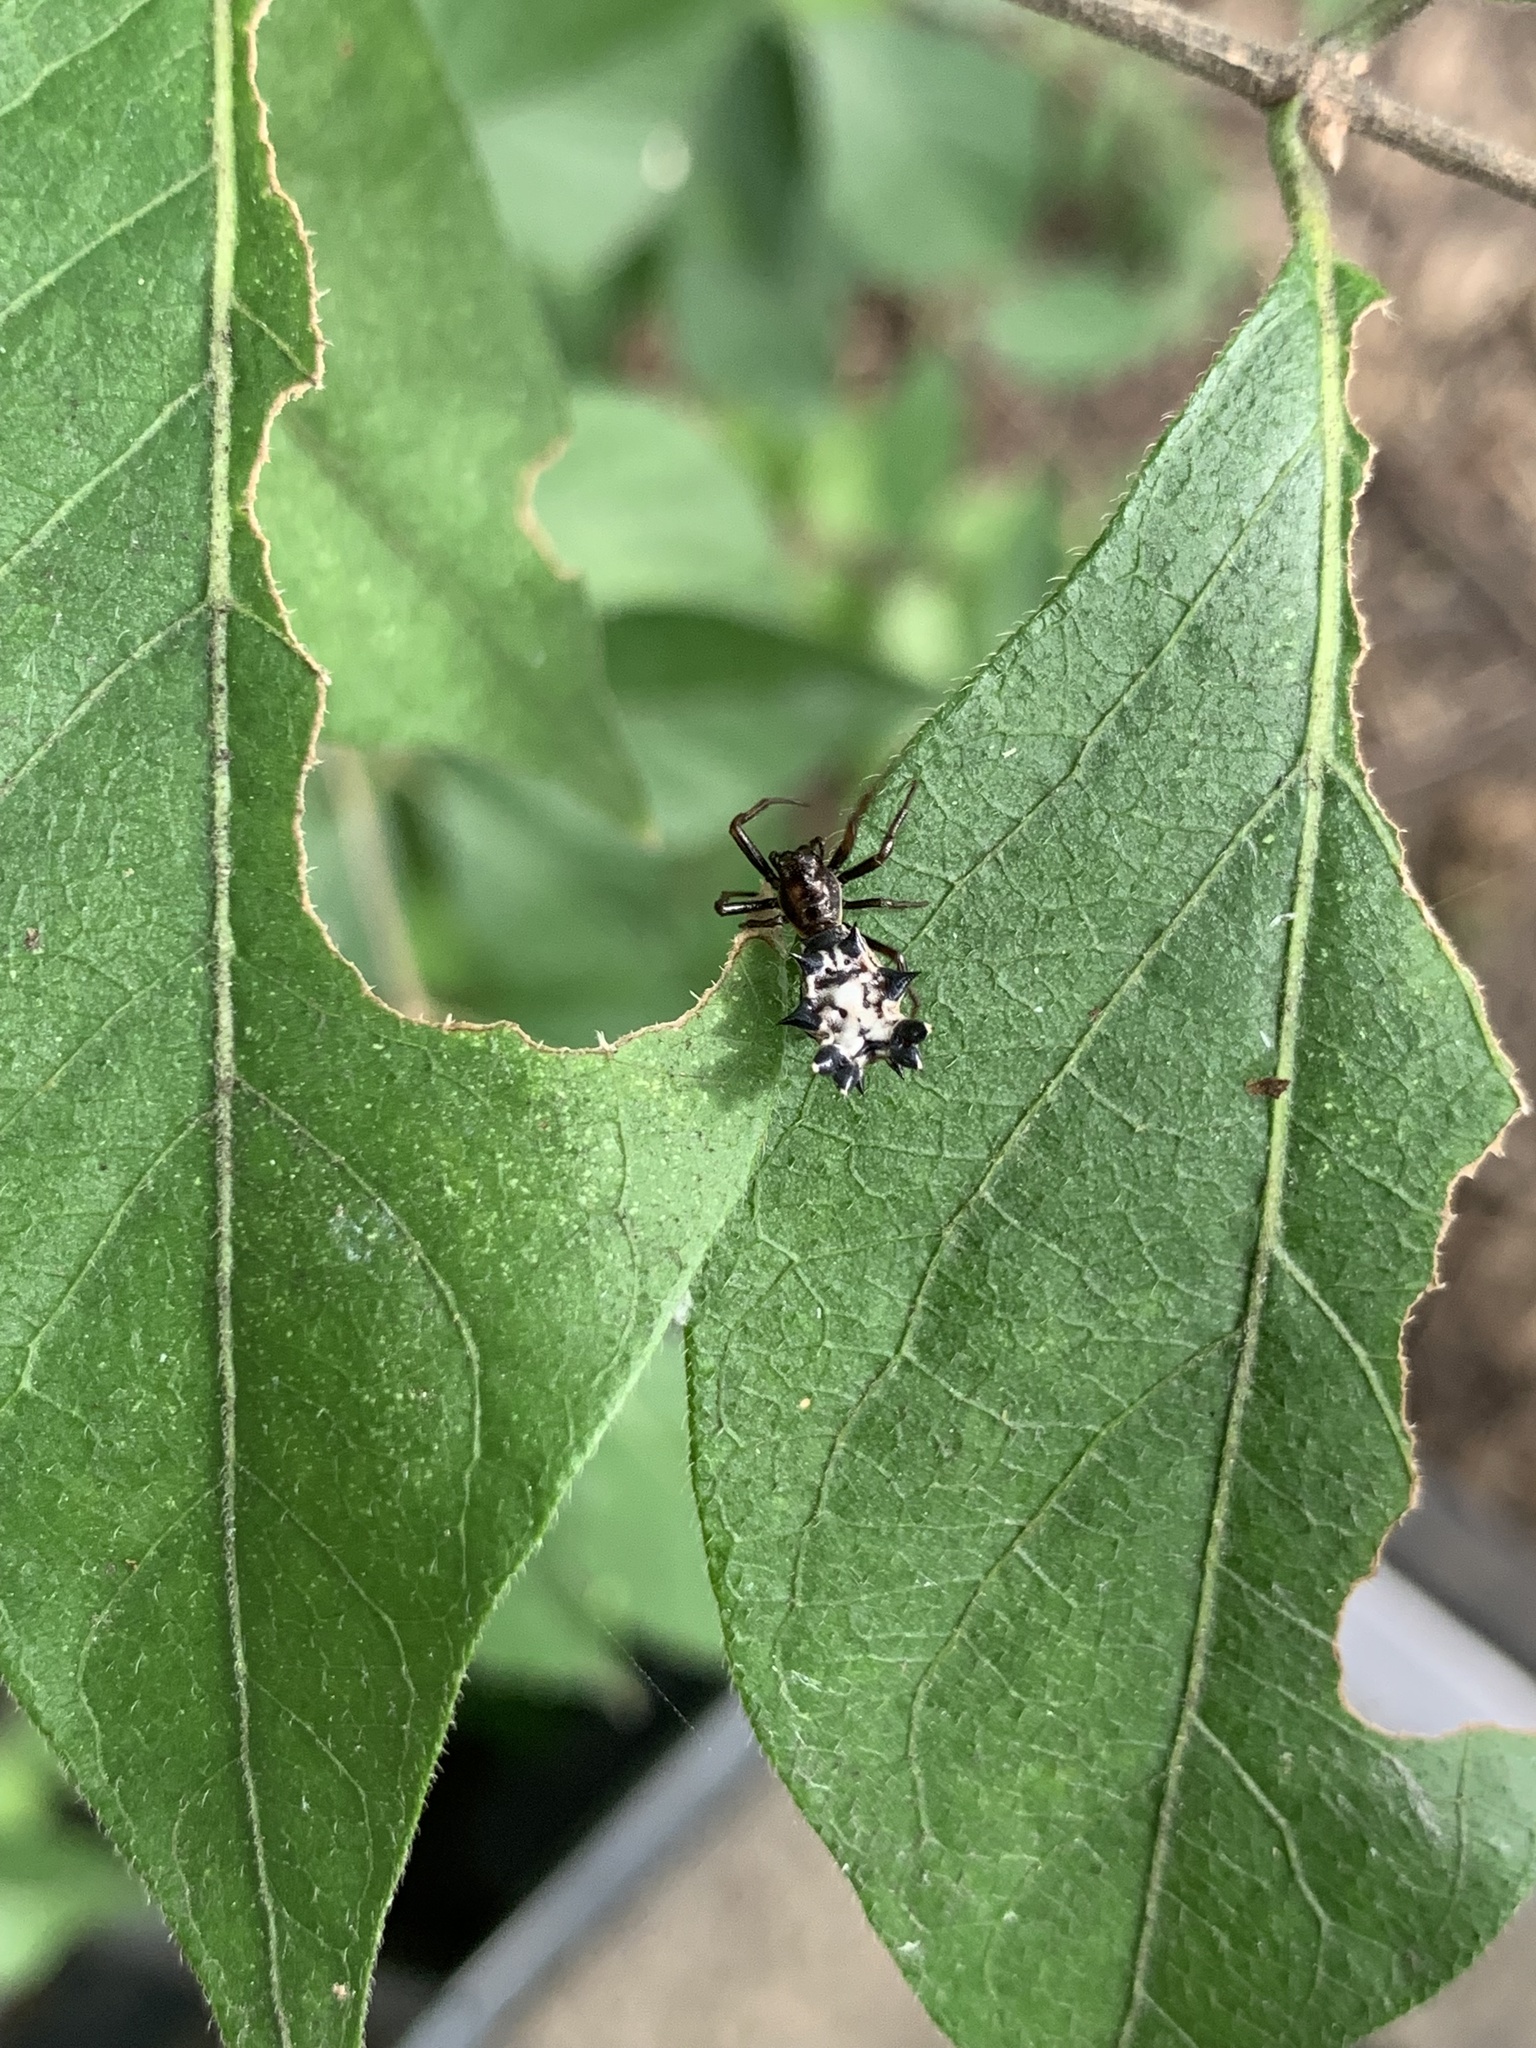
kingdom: Animalia
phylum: Arthropoda
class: Arachnida
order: Araneae
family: Araneidae
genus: Micrathena
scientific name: Micrathena gracilis
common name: Orb weavers
